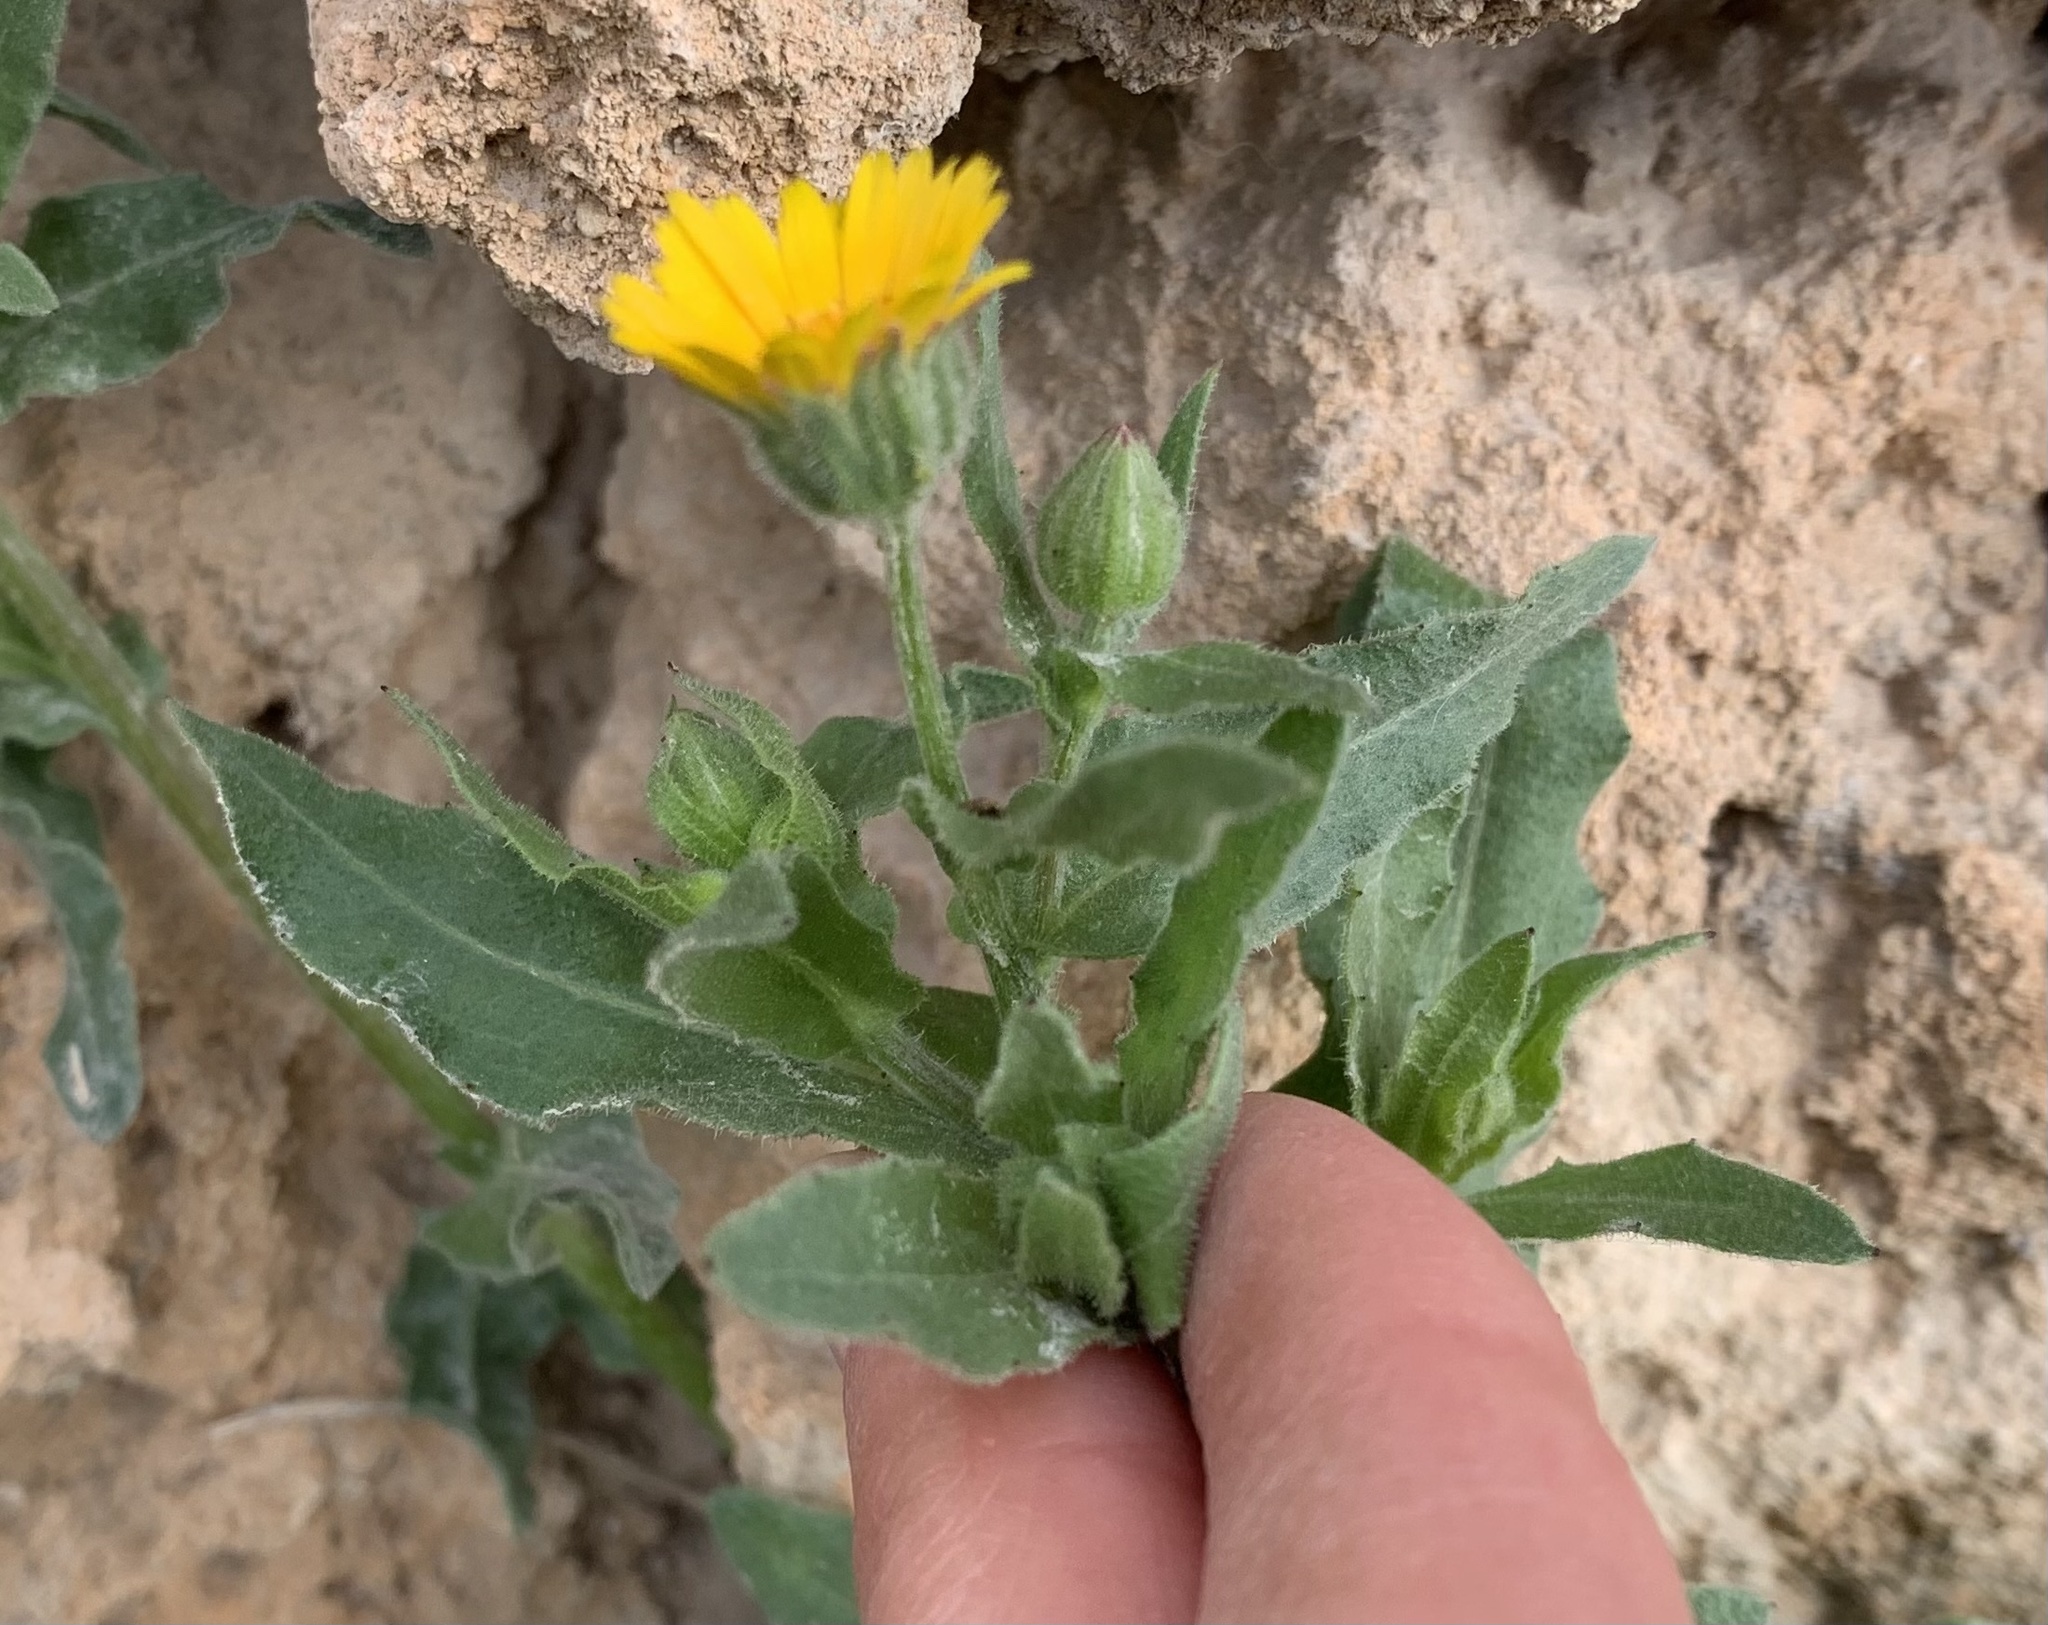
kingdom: Plantae
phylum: Tracheophyta
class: Magnoliopsida
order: Asterales
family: Asteraceae
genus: Calendula
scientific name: Calendula arvensis
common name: Field marigold
